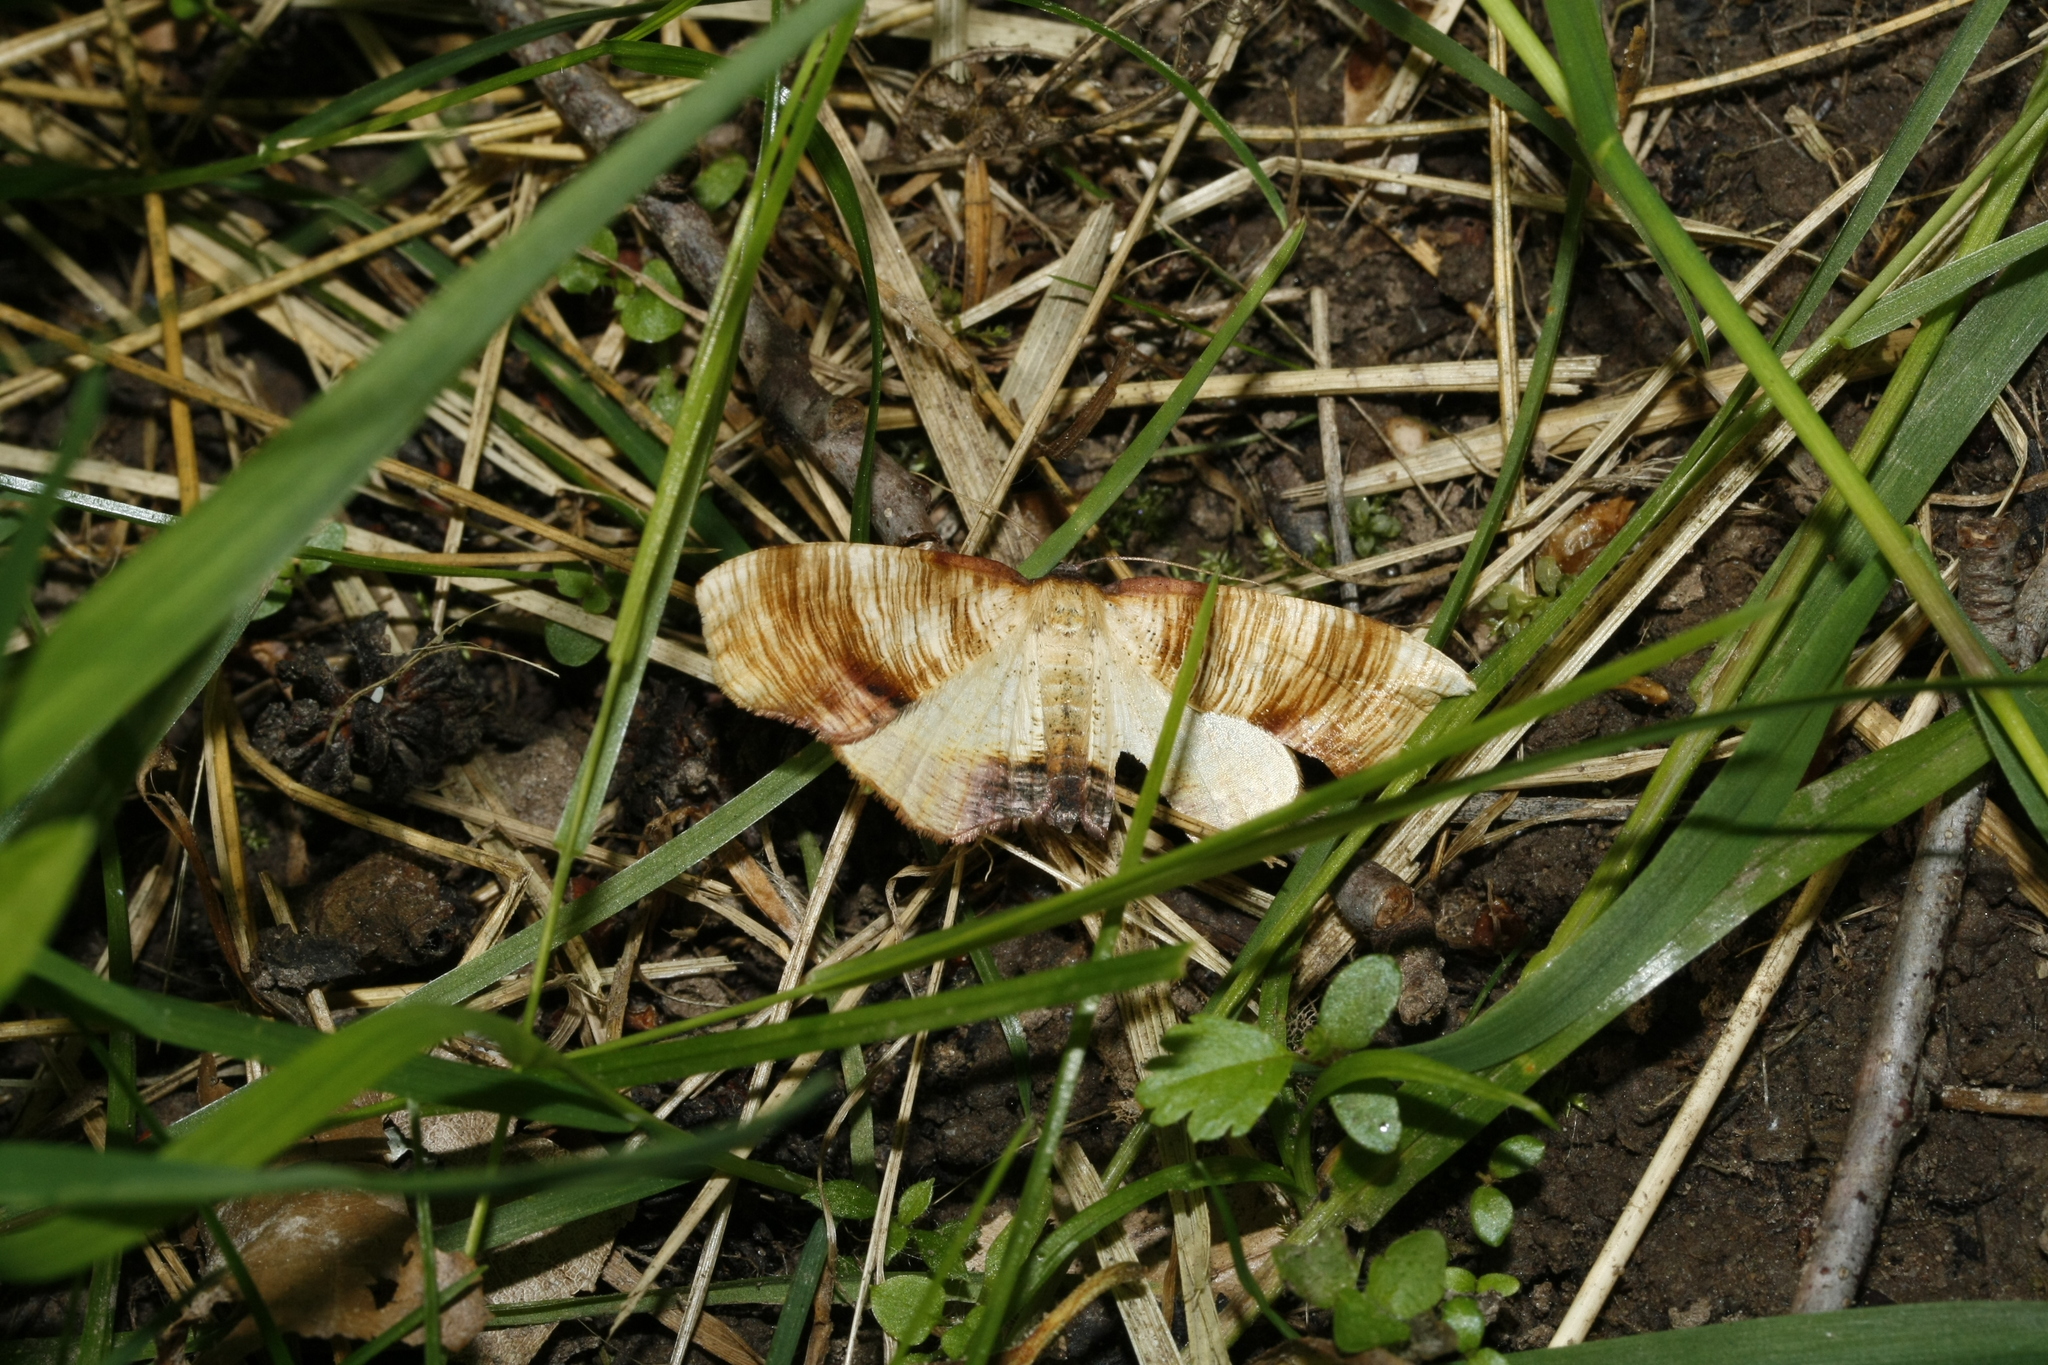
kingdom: Animalia
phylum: Arthropoda
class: Insecta
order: Lepidoptera
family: Geometridae
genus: Plagodis
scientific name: Plagodis dolabraria
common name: Scorched wing
